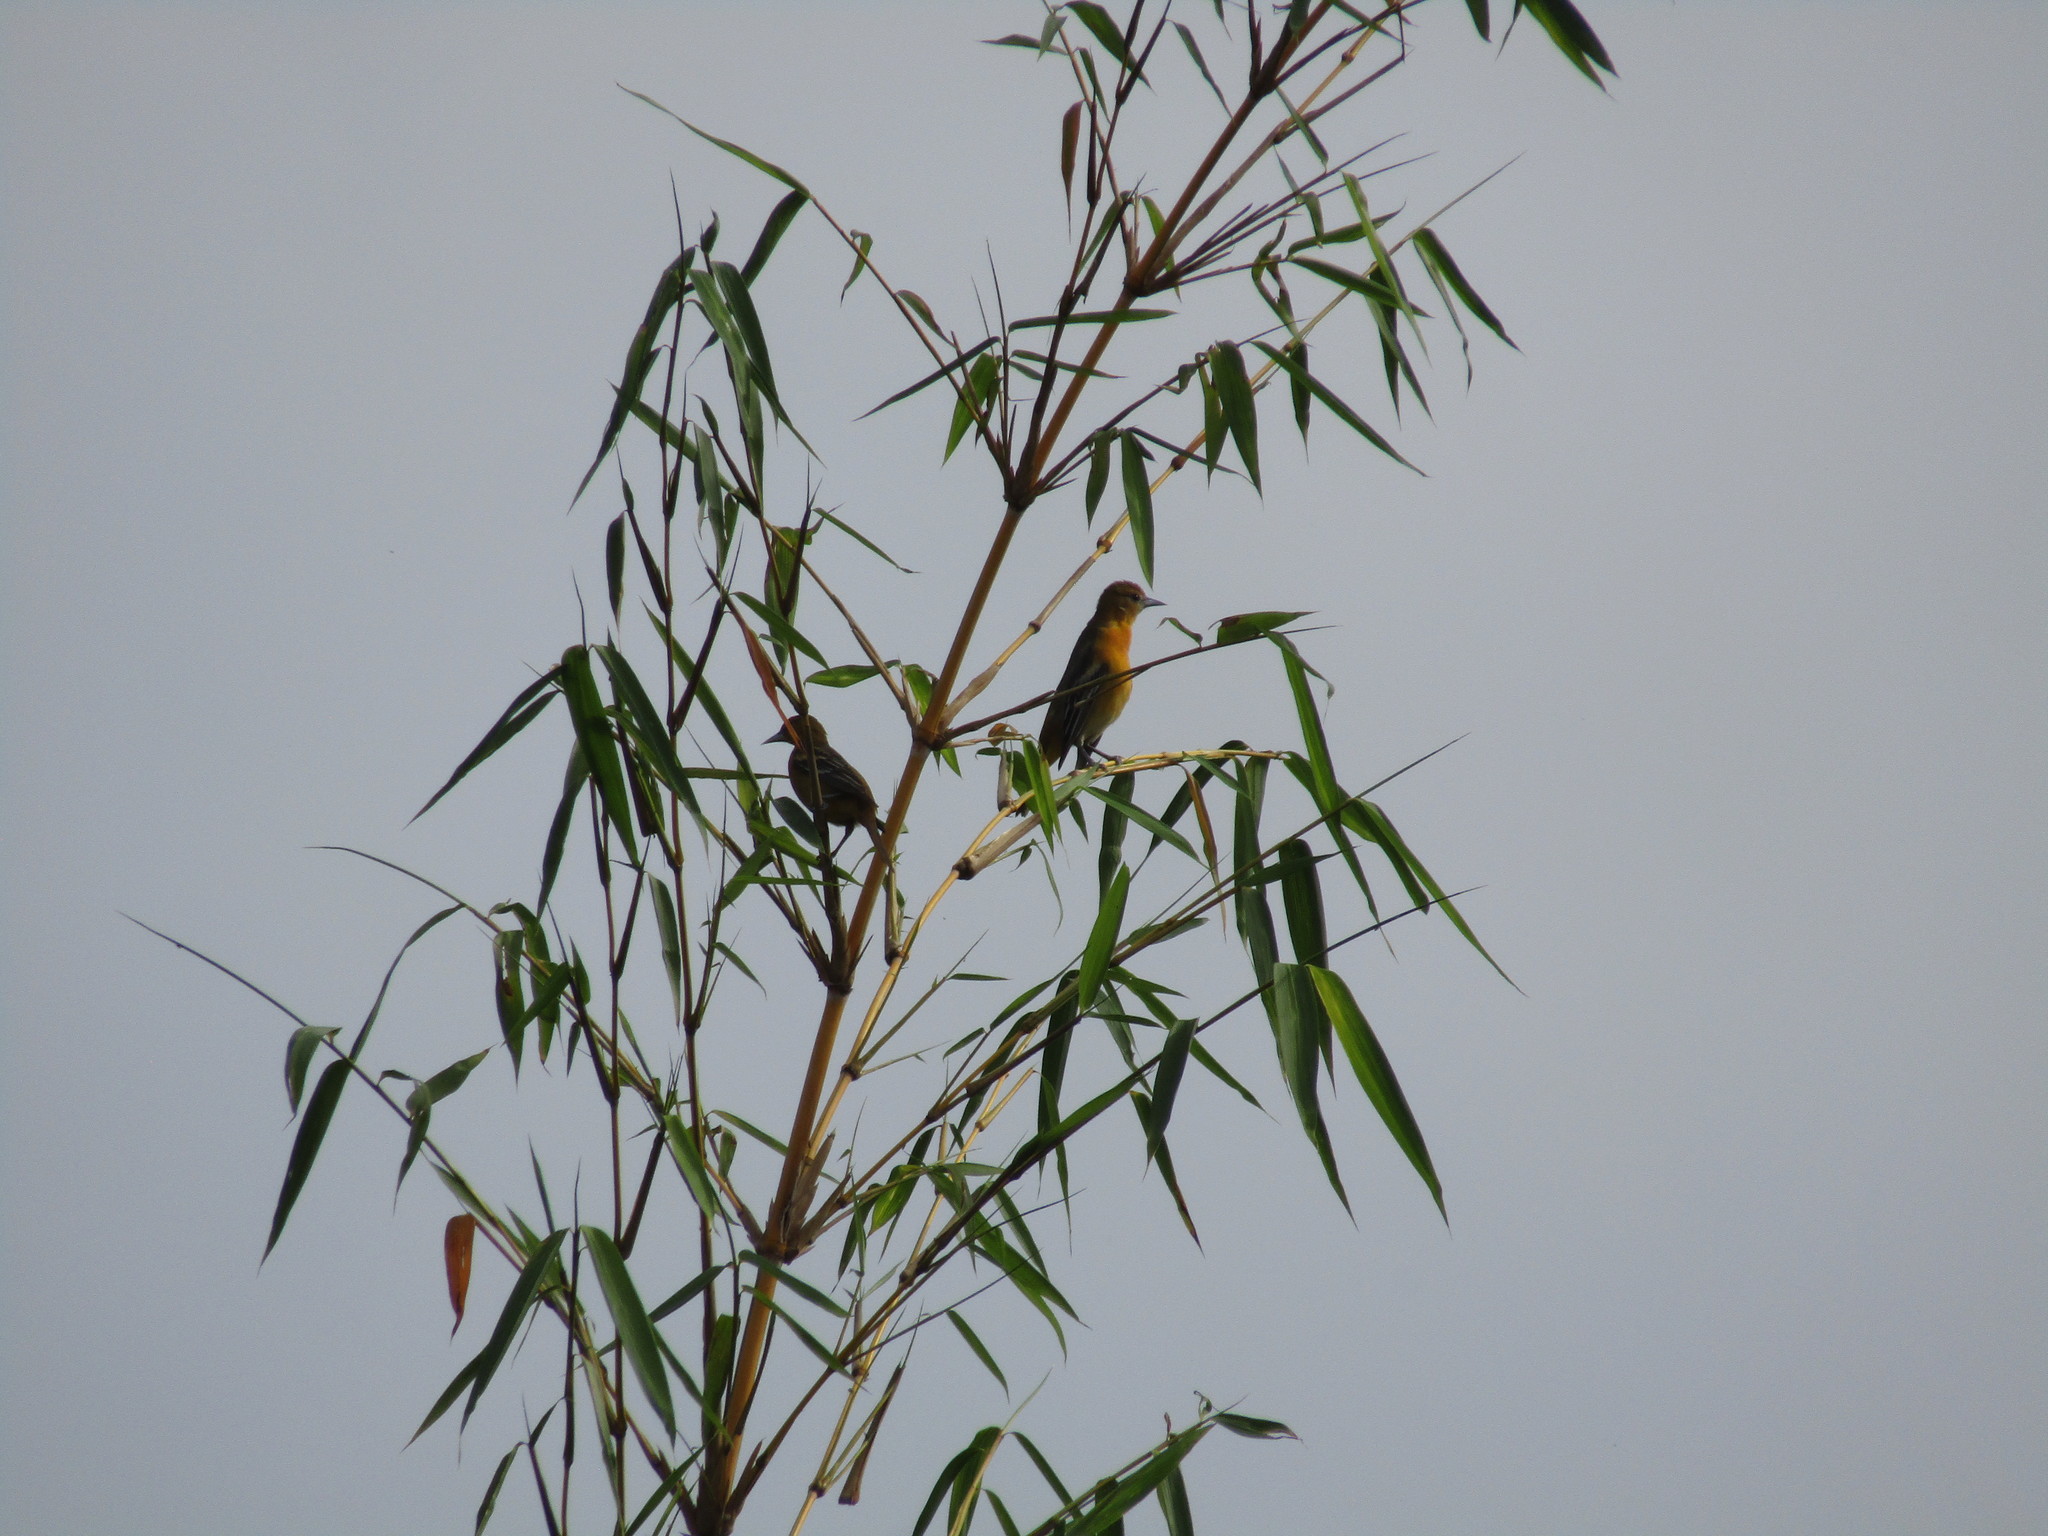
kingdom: Animalia
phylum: Chordata
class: Aves
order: Passeriformes
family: Icteridae
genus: Icterus
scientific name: Icterus cucullatus
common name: Hooded oriole
